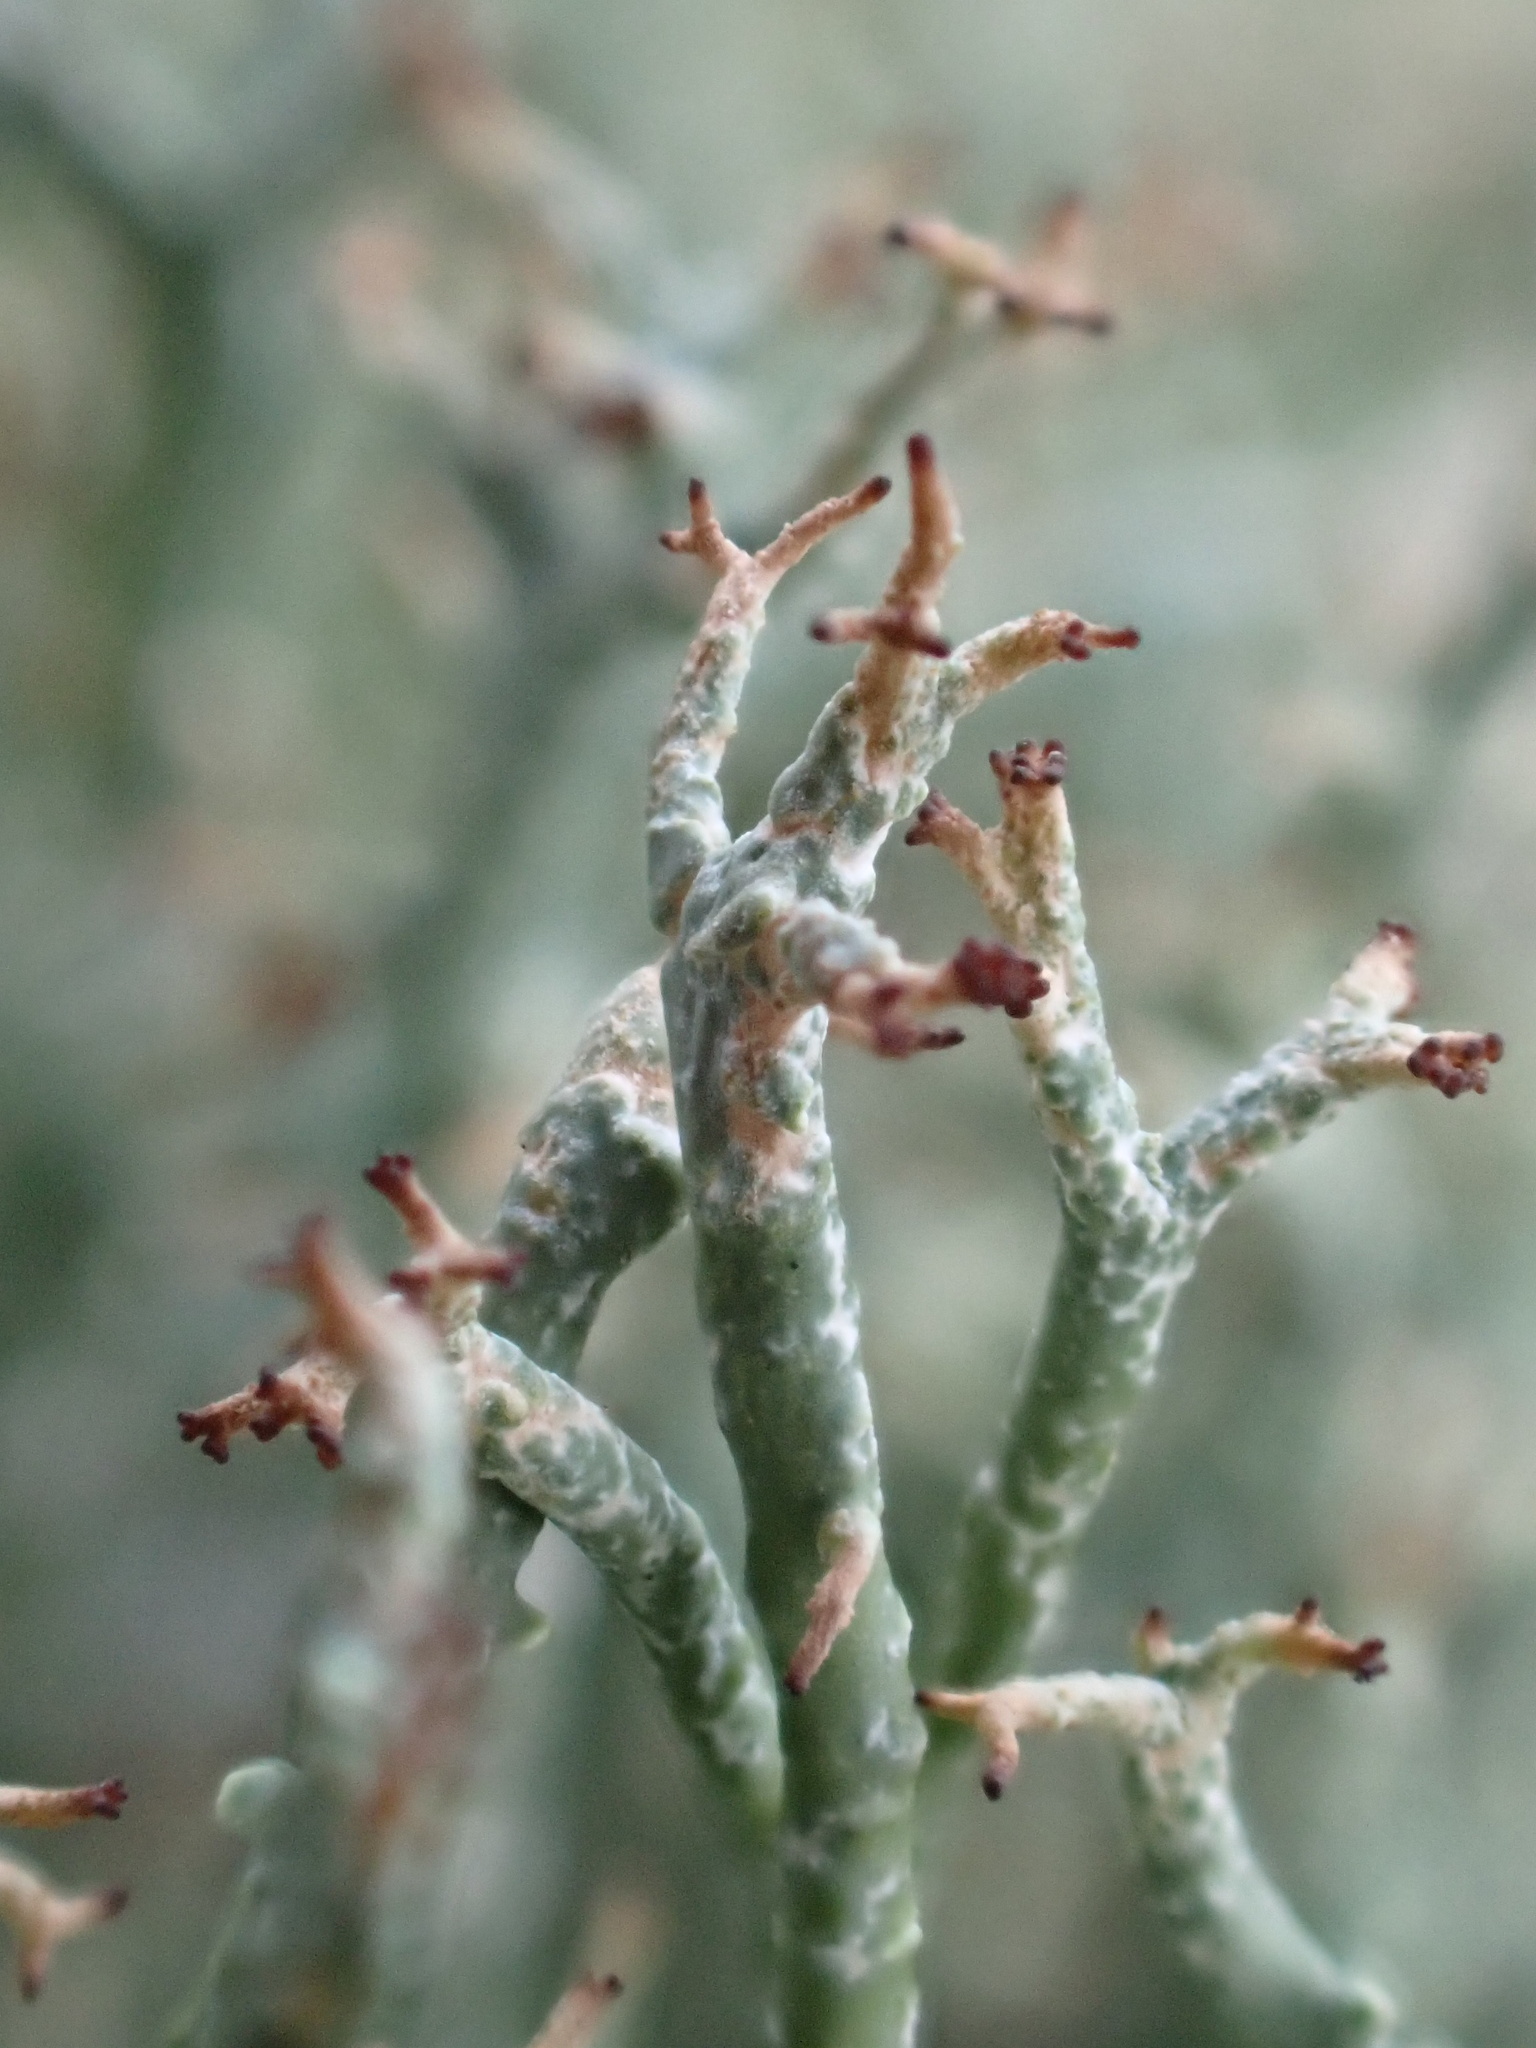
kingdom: Fungi
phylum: Ascomycota
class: Lecanoromycetes
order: Lecanorales
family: Cladoniaceae
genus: Cladonia
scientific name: Cladonia furcata
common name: Many-forked cladonia
